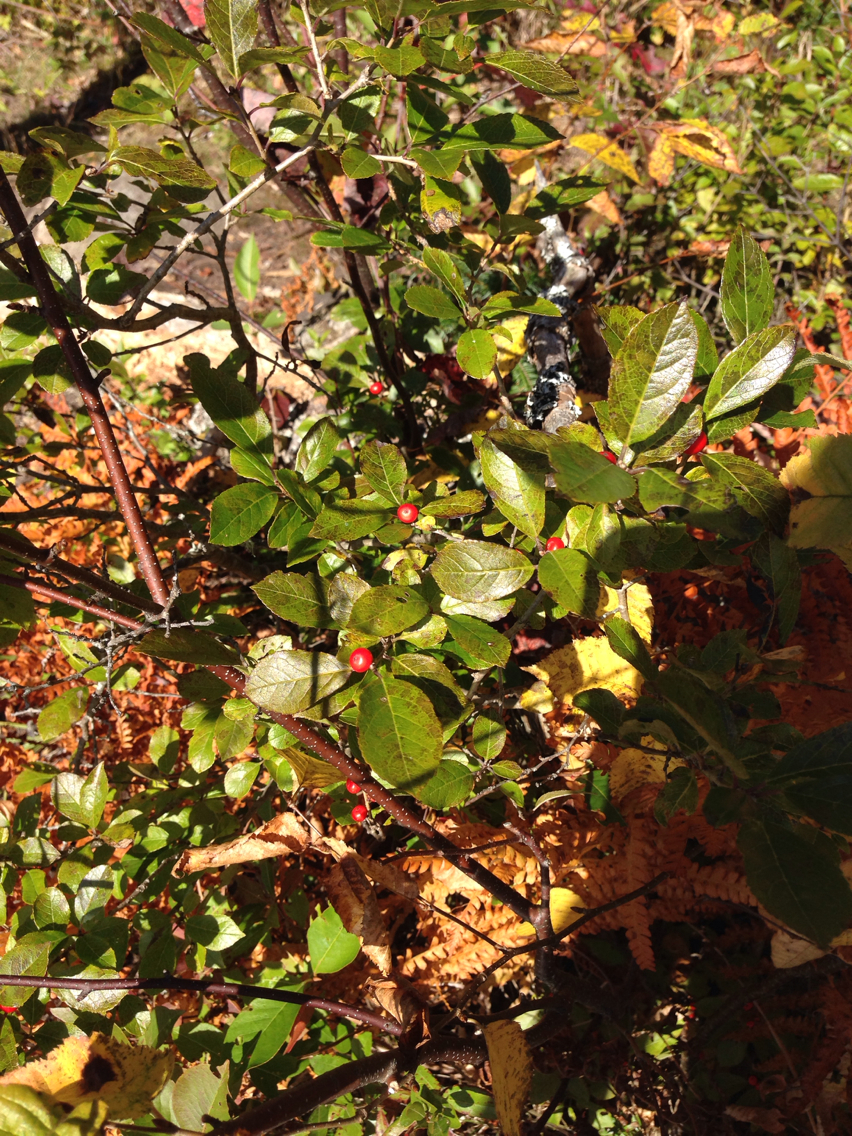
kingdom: Plantae
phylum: Tracheophyta
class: Magnoliopsida
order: Aquifoliales
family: Aquifoliaceae
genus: Ilex
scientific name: Ilex verticillata
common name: Virginia winterberry
